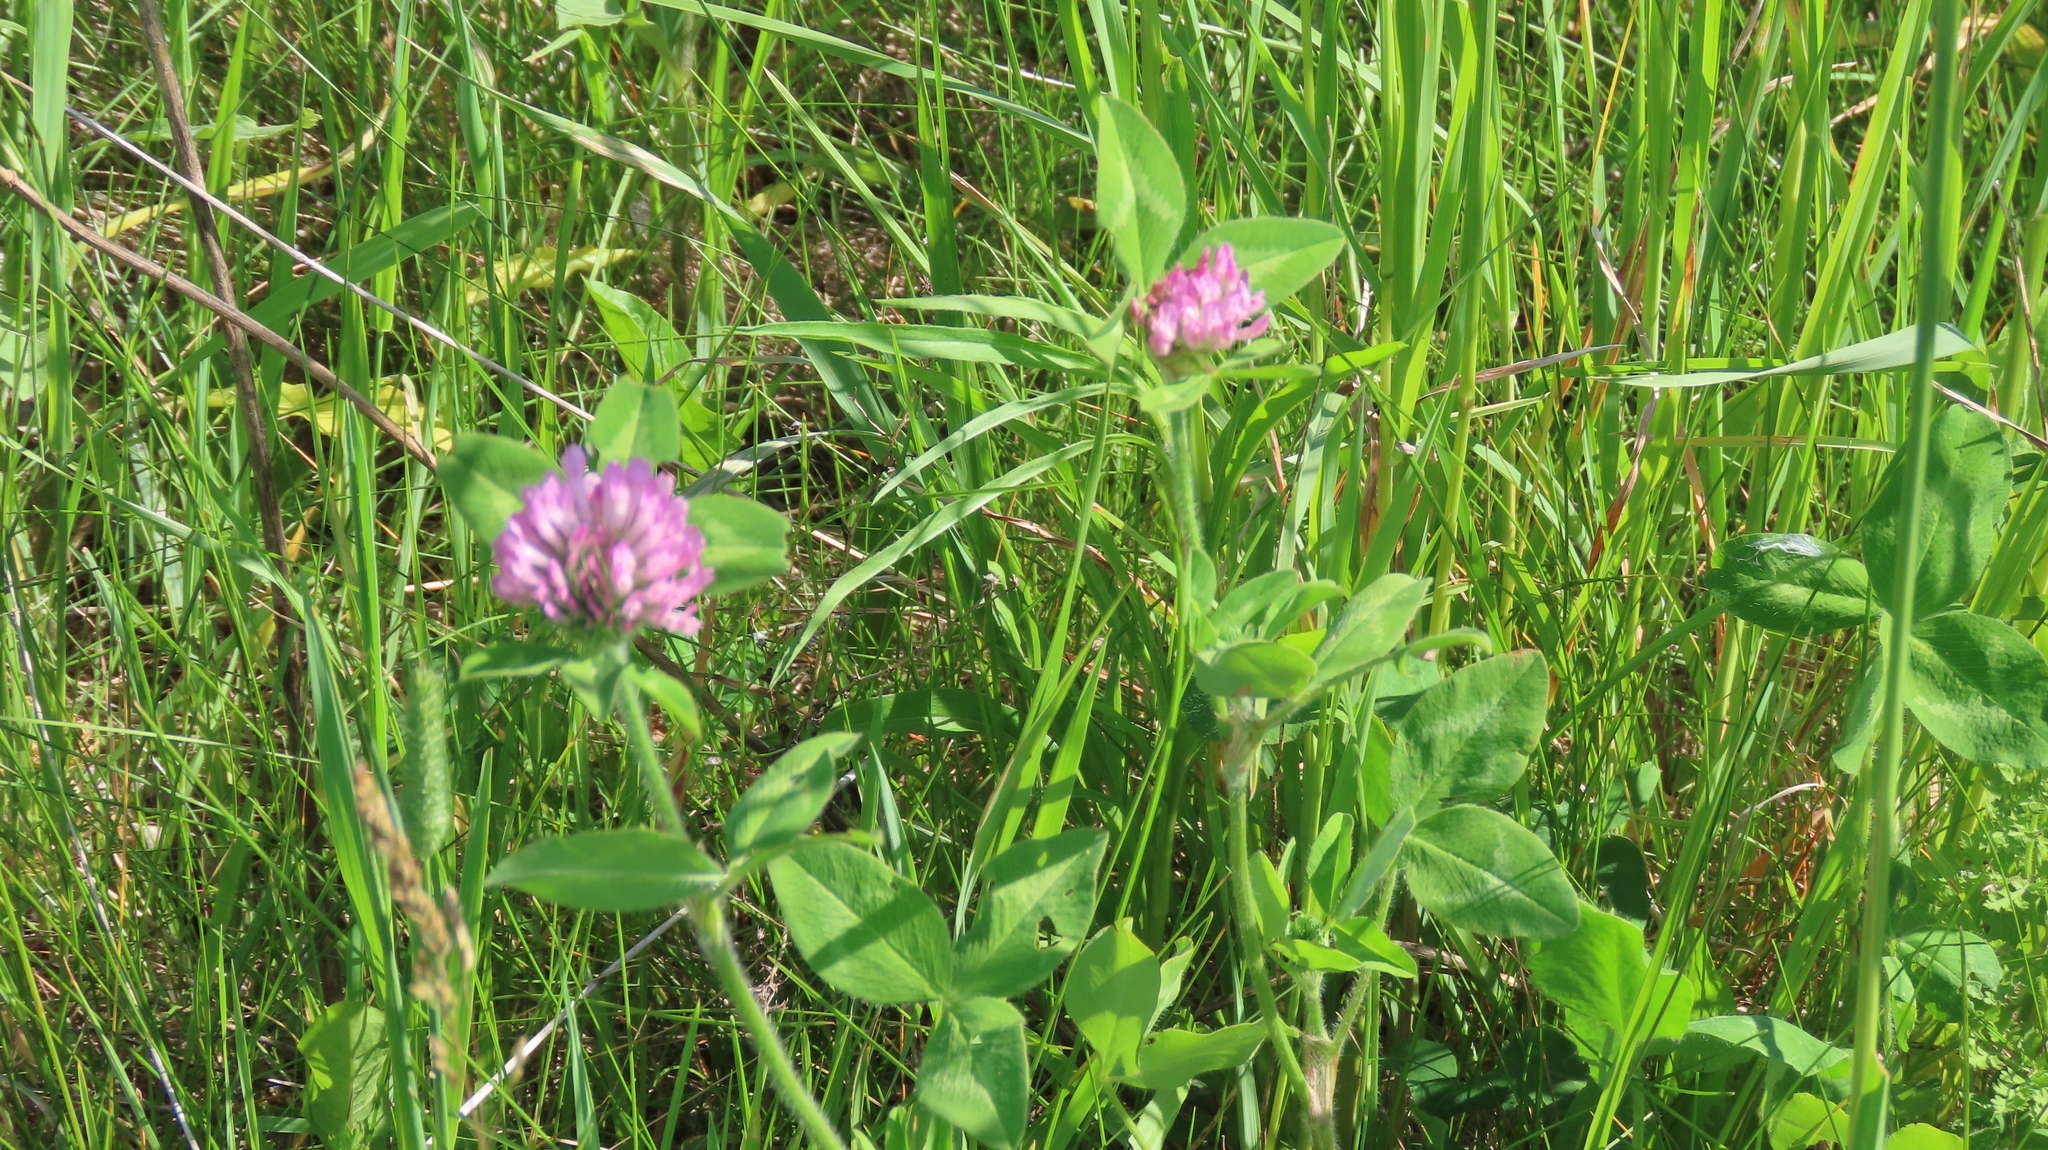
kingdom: Plantae
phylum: Tracheophyta
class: Magnoliopsida
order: Fabales
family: Fabaceae
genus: Trifolium
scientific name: Trifolium pratense
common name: Red clover
